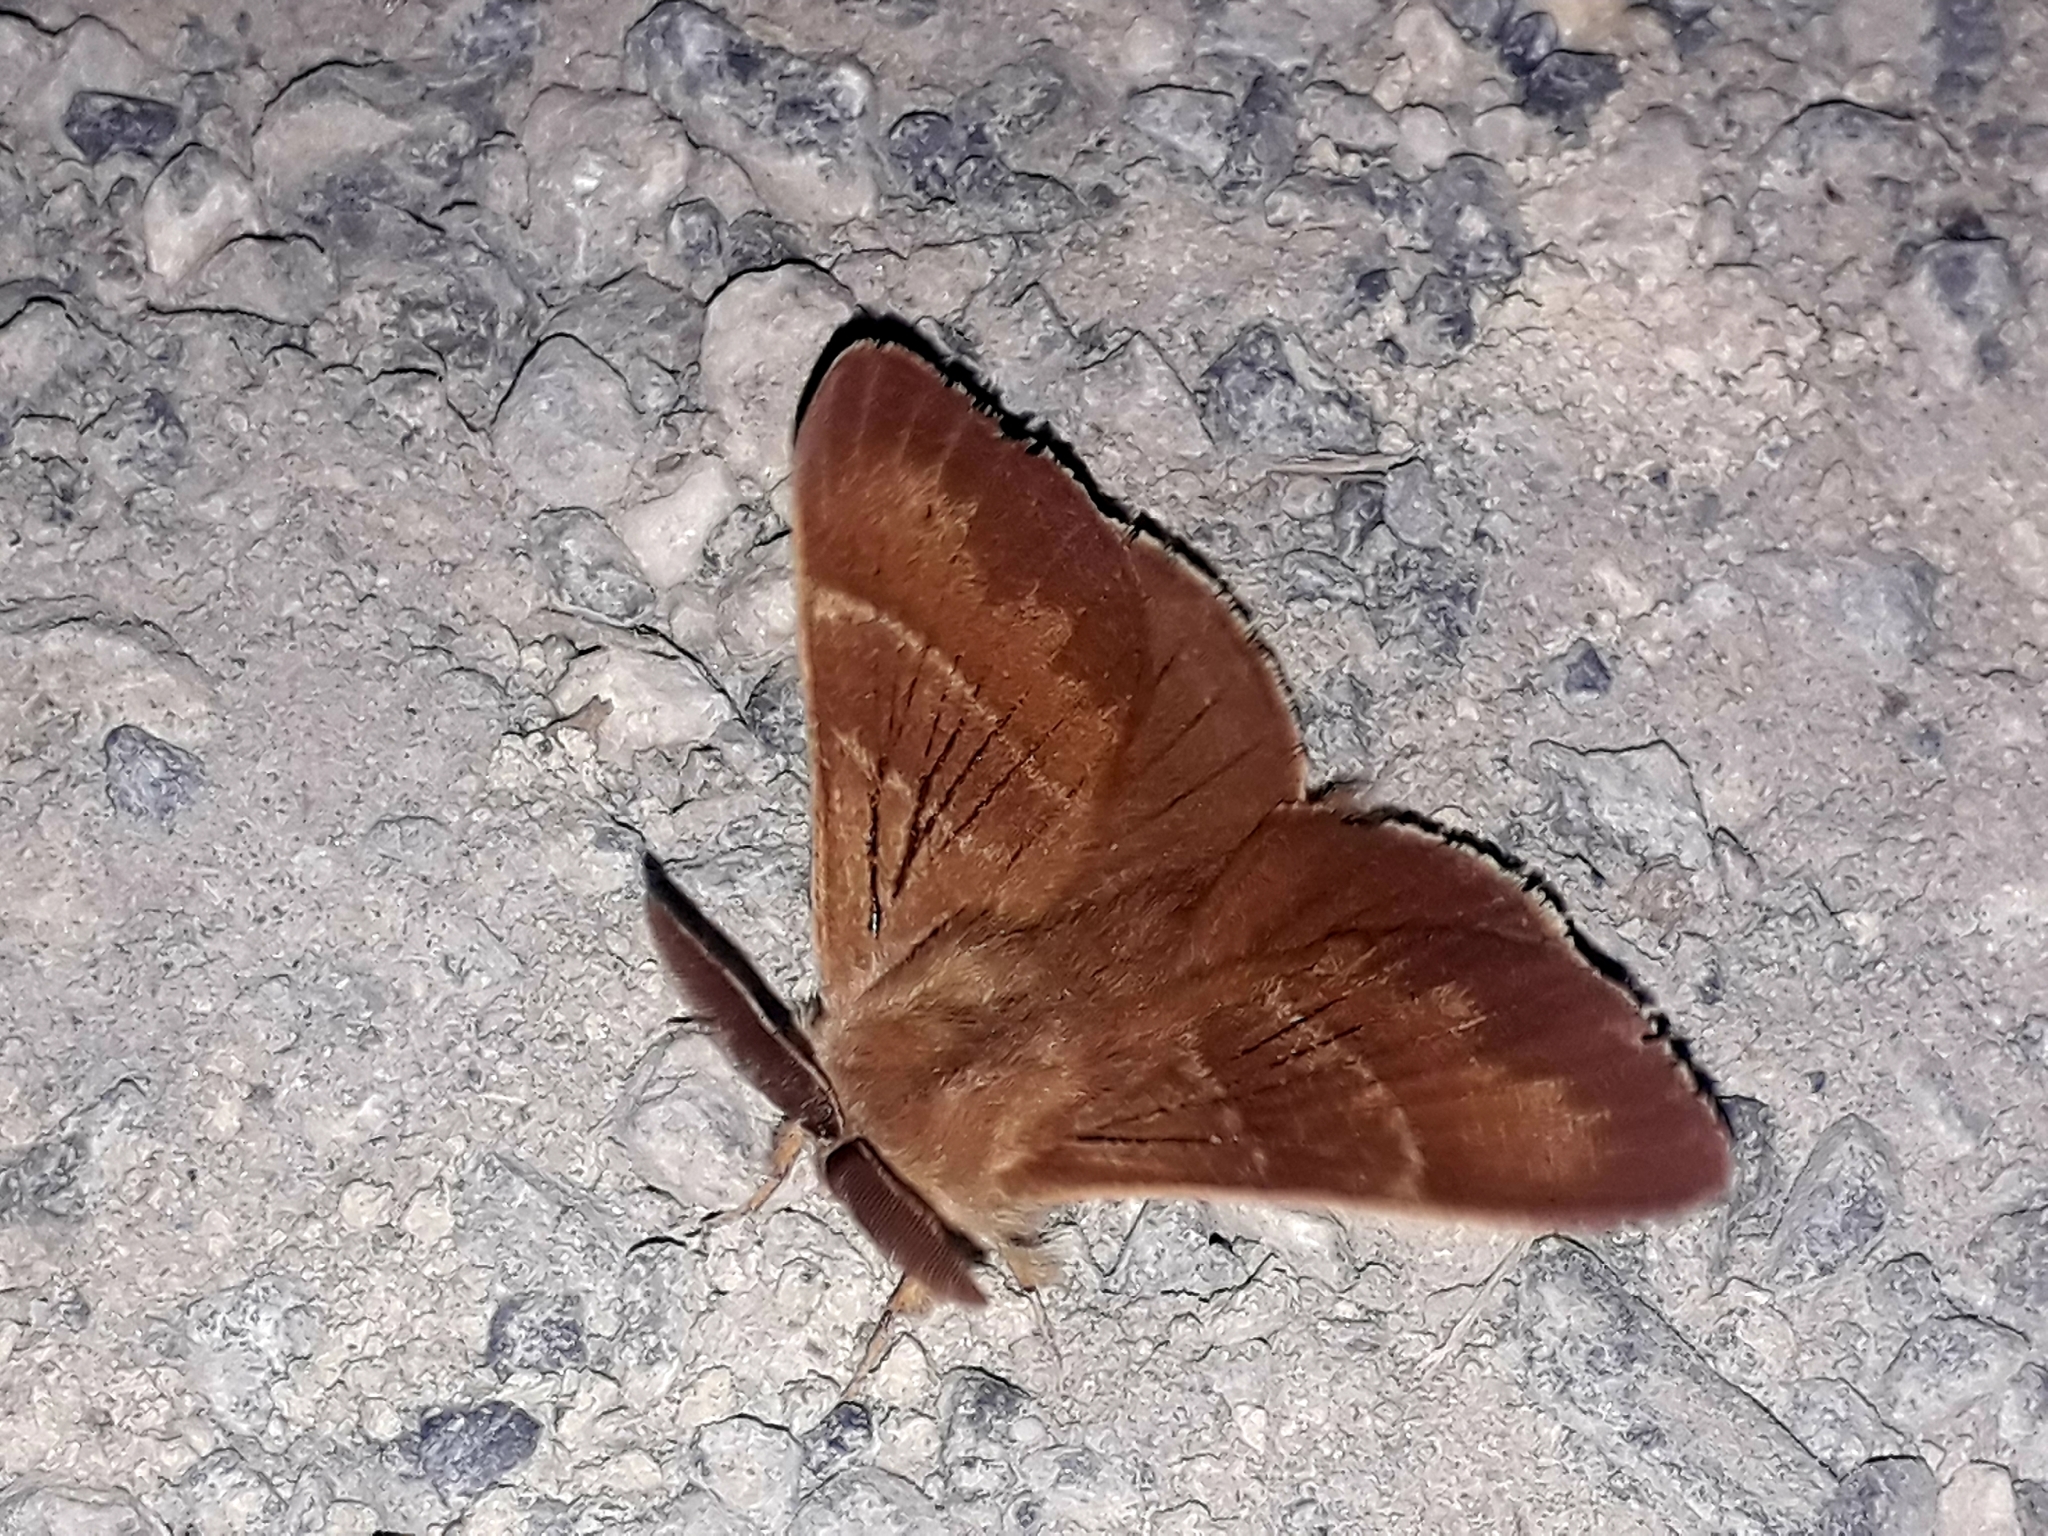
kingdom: Animalia
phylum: Arthropoda
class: Insecta
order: Lepidoptera
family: Lasiocampidae
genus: Macrothylacia
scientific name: Macrothylacia rubi
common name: Fox moth
